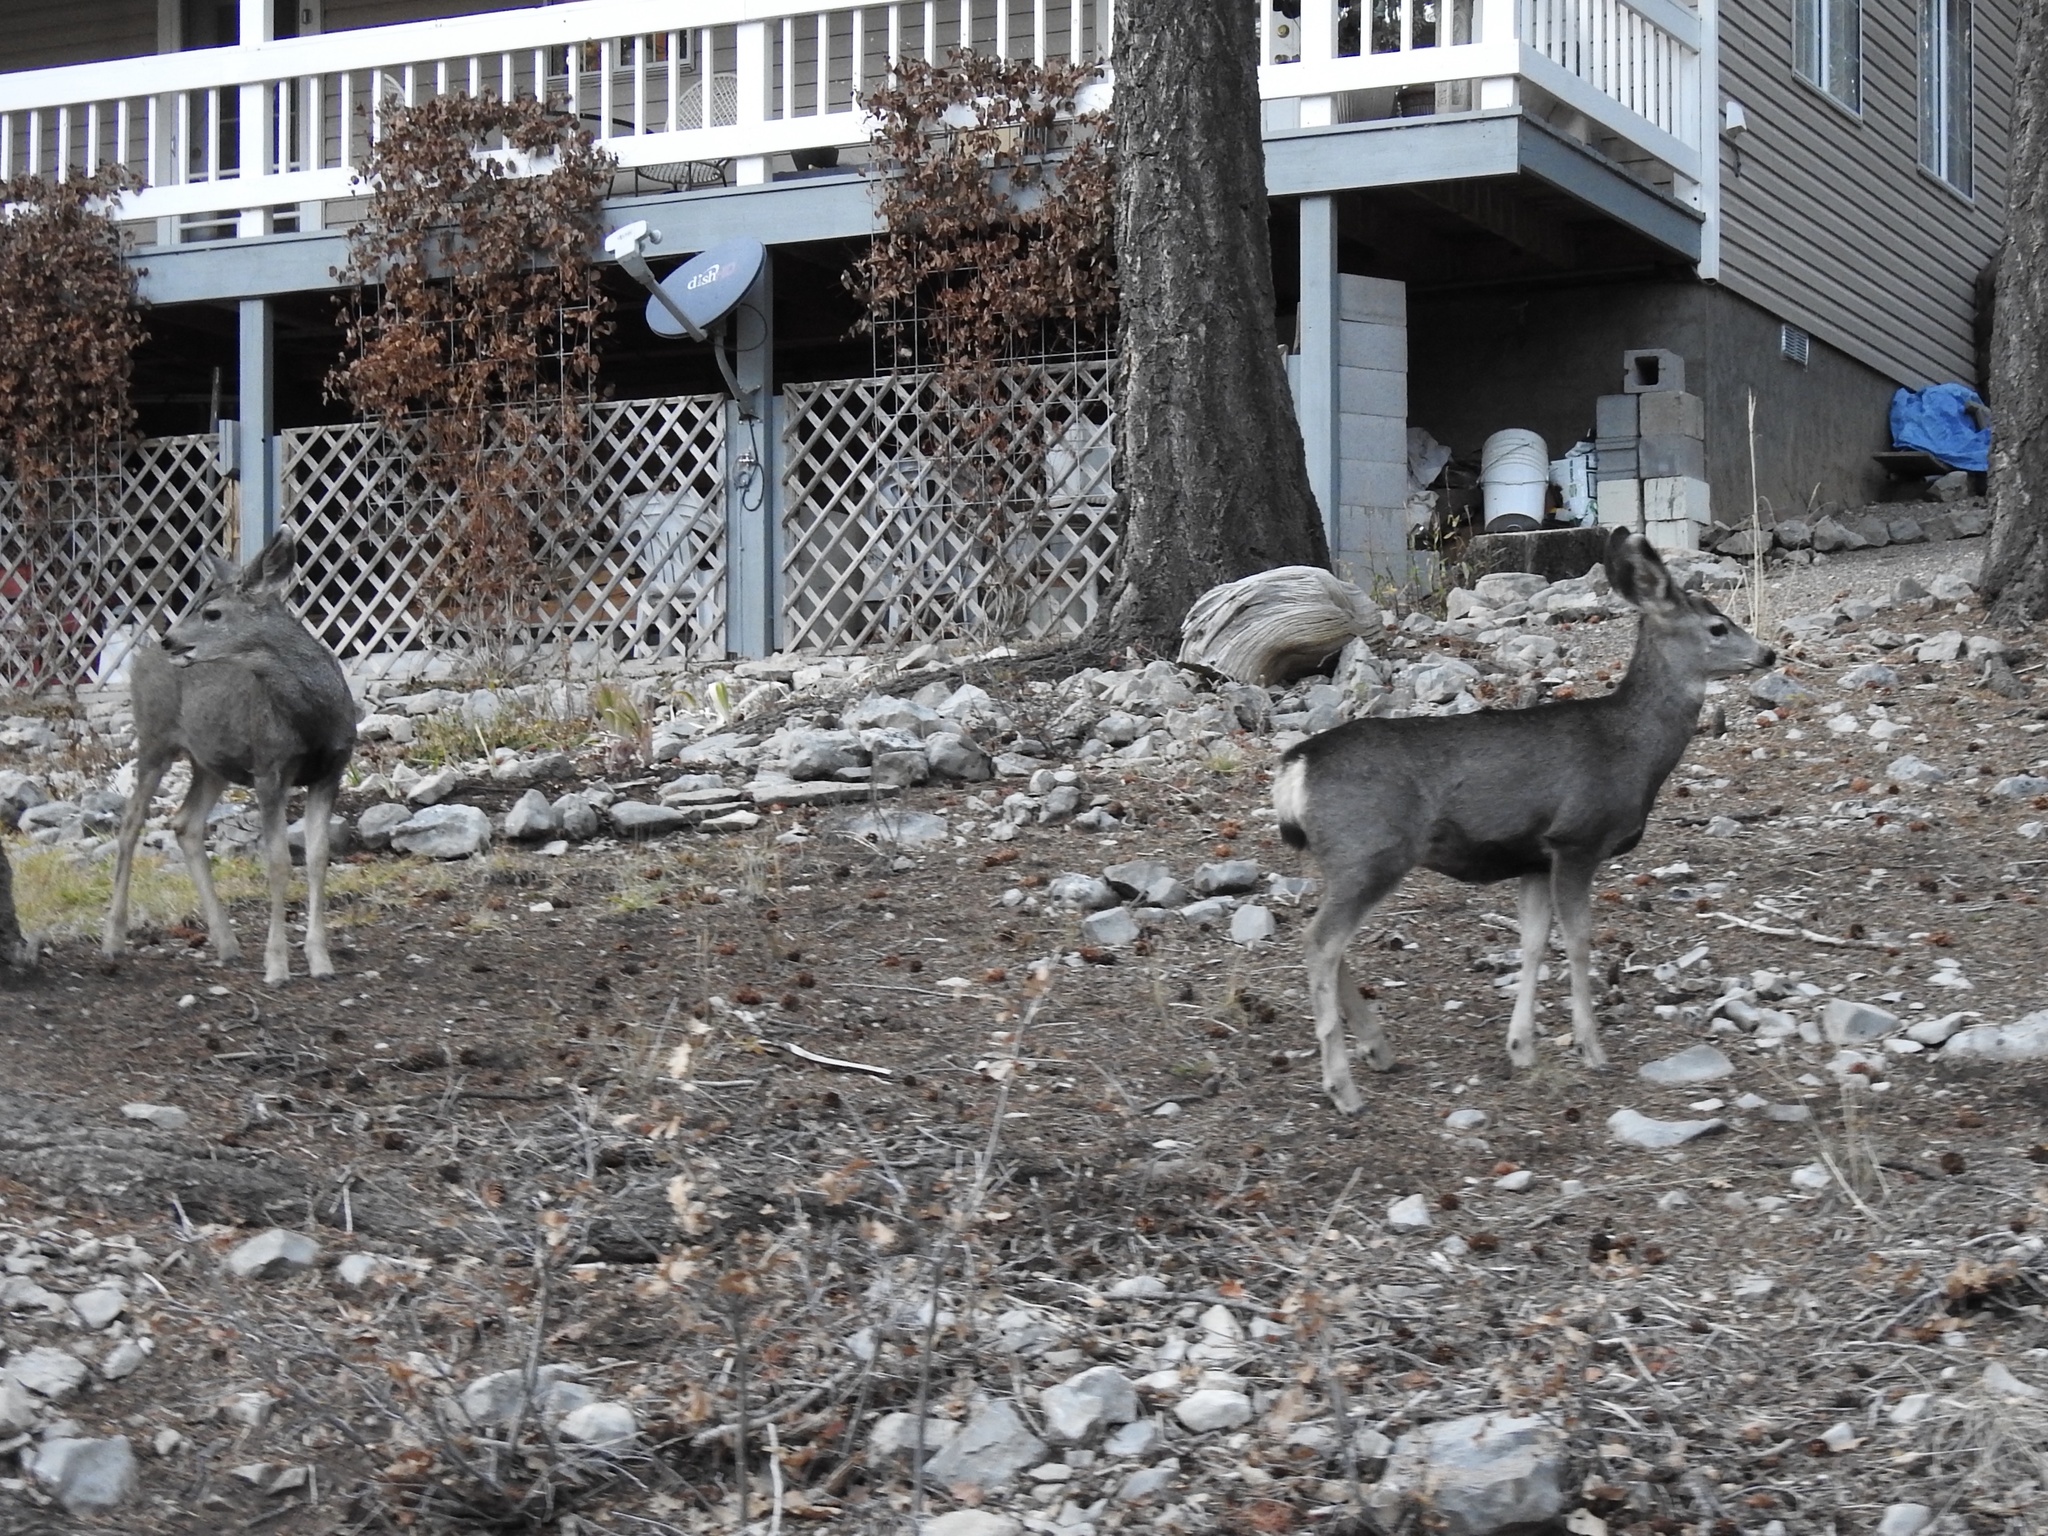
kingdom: Animalia
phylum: Chordata
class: Mammalia
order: Artiodactyla
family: Cervidae
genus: Odocoileus
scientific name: Odocoileus hemionus
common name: Mule deer
